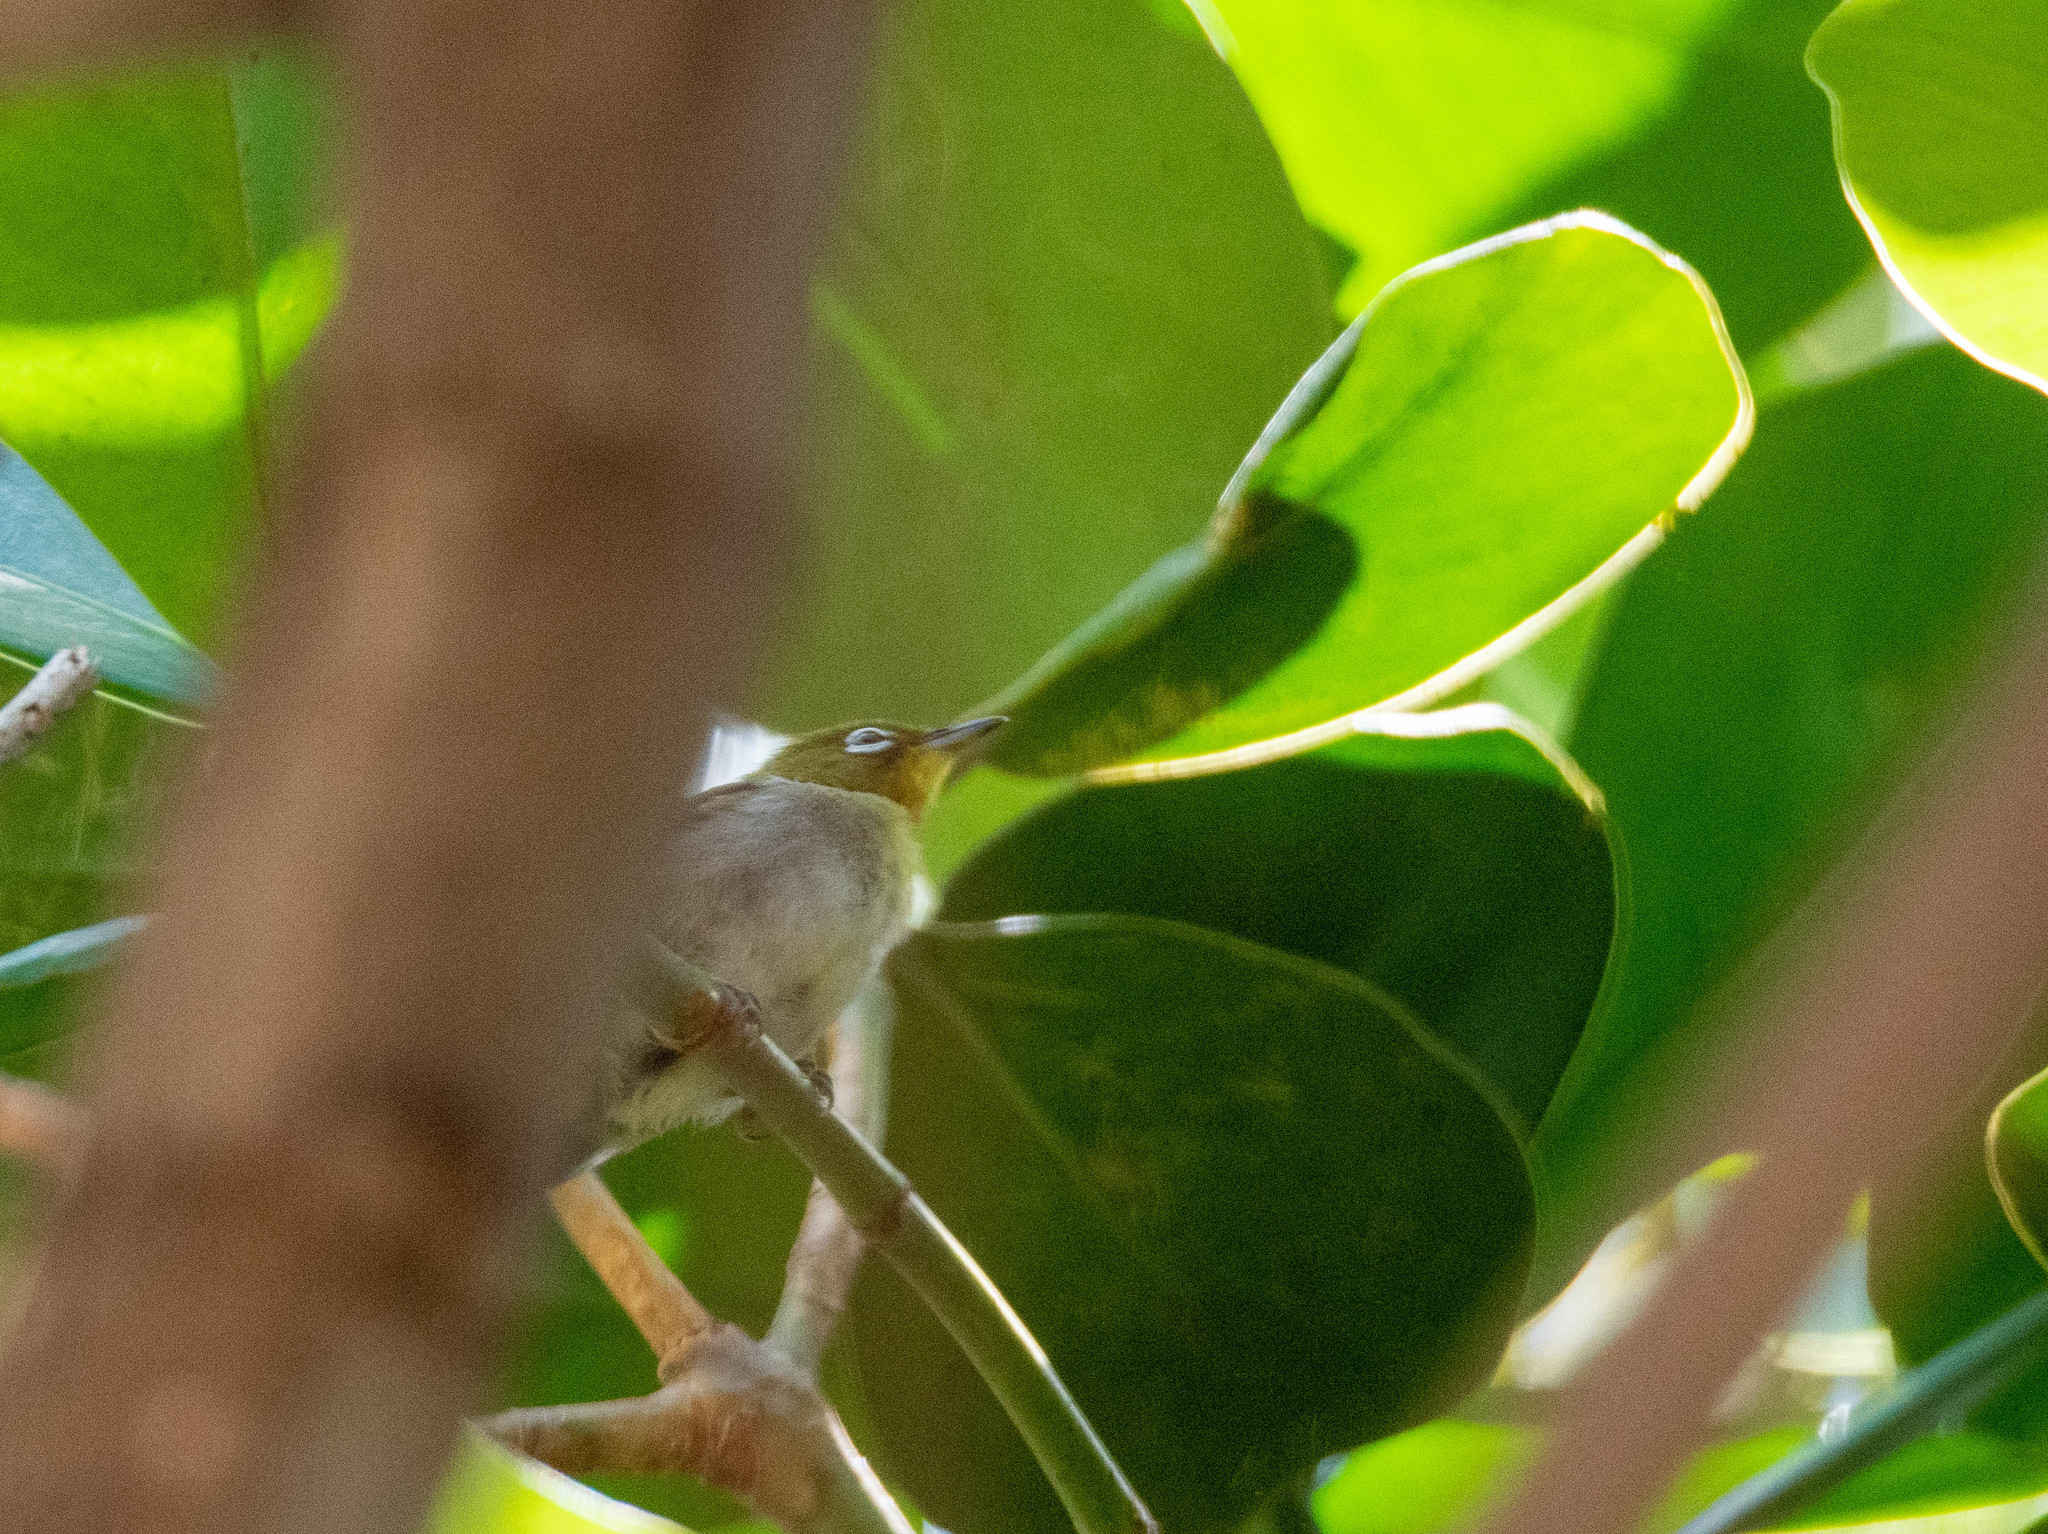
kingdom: Animalia
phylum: Chordata
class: Aves
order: Passeriformes
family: Zosteropidae
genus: Zosterops
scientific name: Zosterops japonicus
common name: Japanese white-eye
